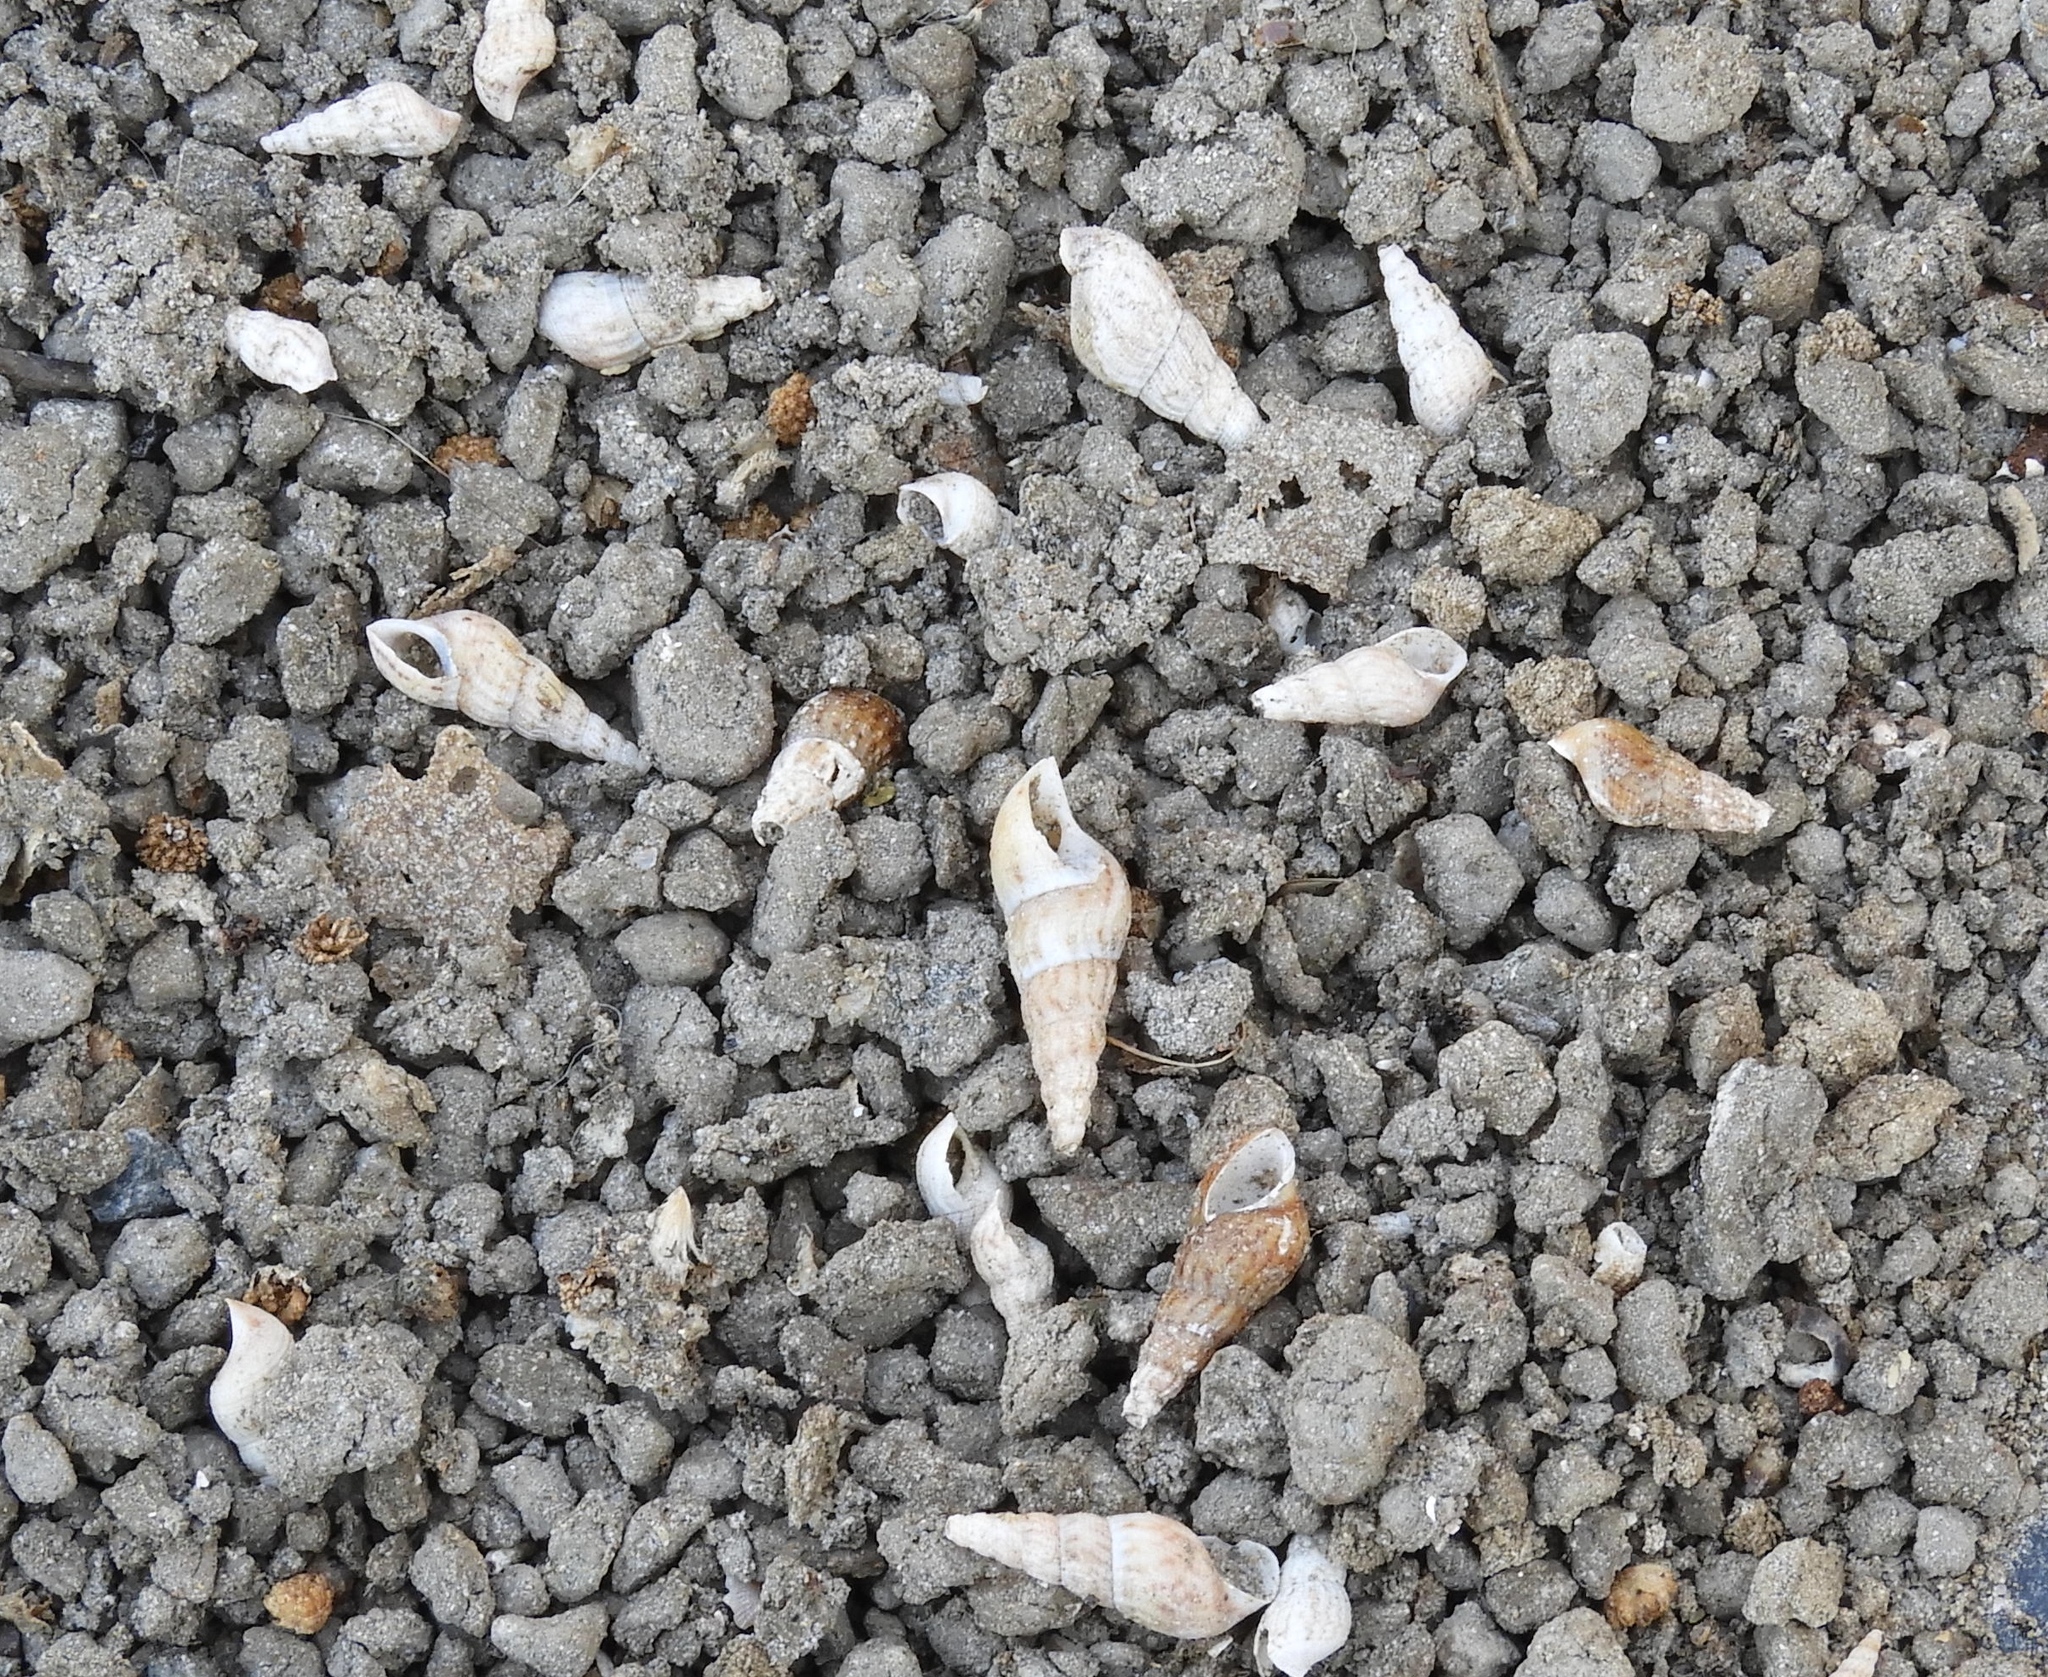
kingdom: Animalia
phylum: Mollusca
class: Gastropoda
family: Thiaridae
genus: Melanoides
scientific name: Melanoides tuberculata
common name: Red-rim melania
